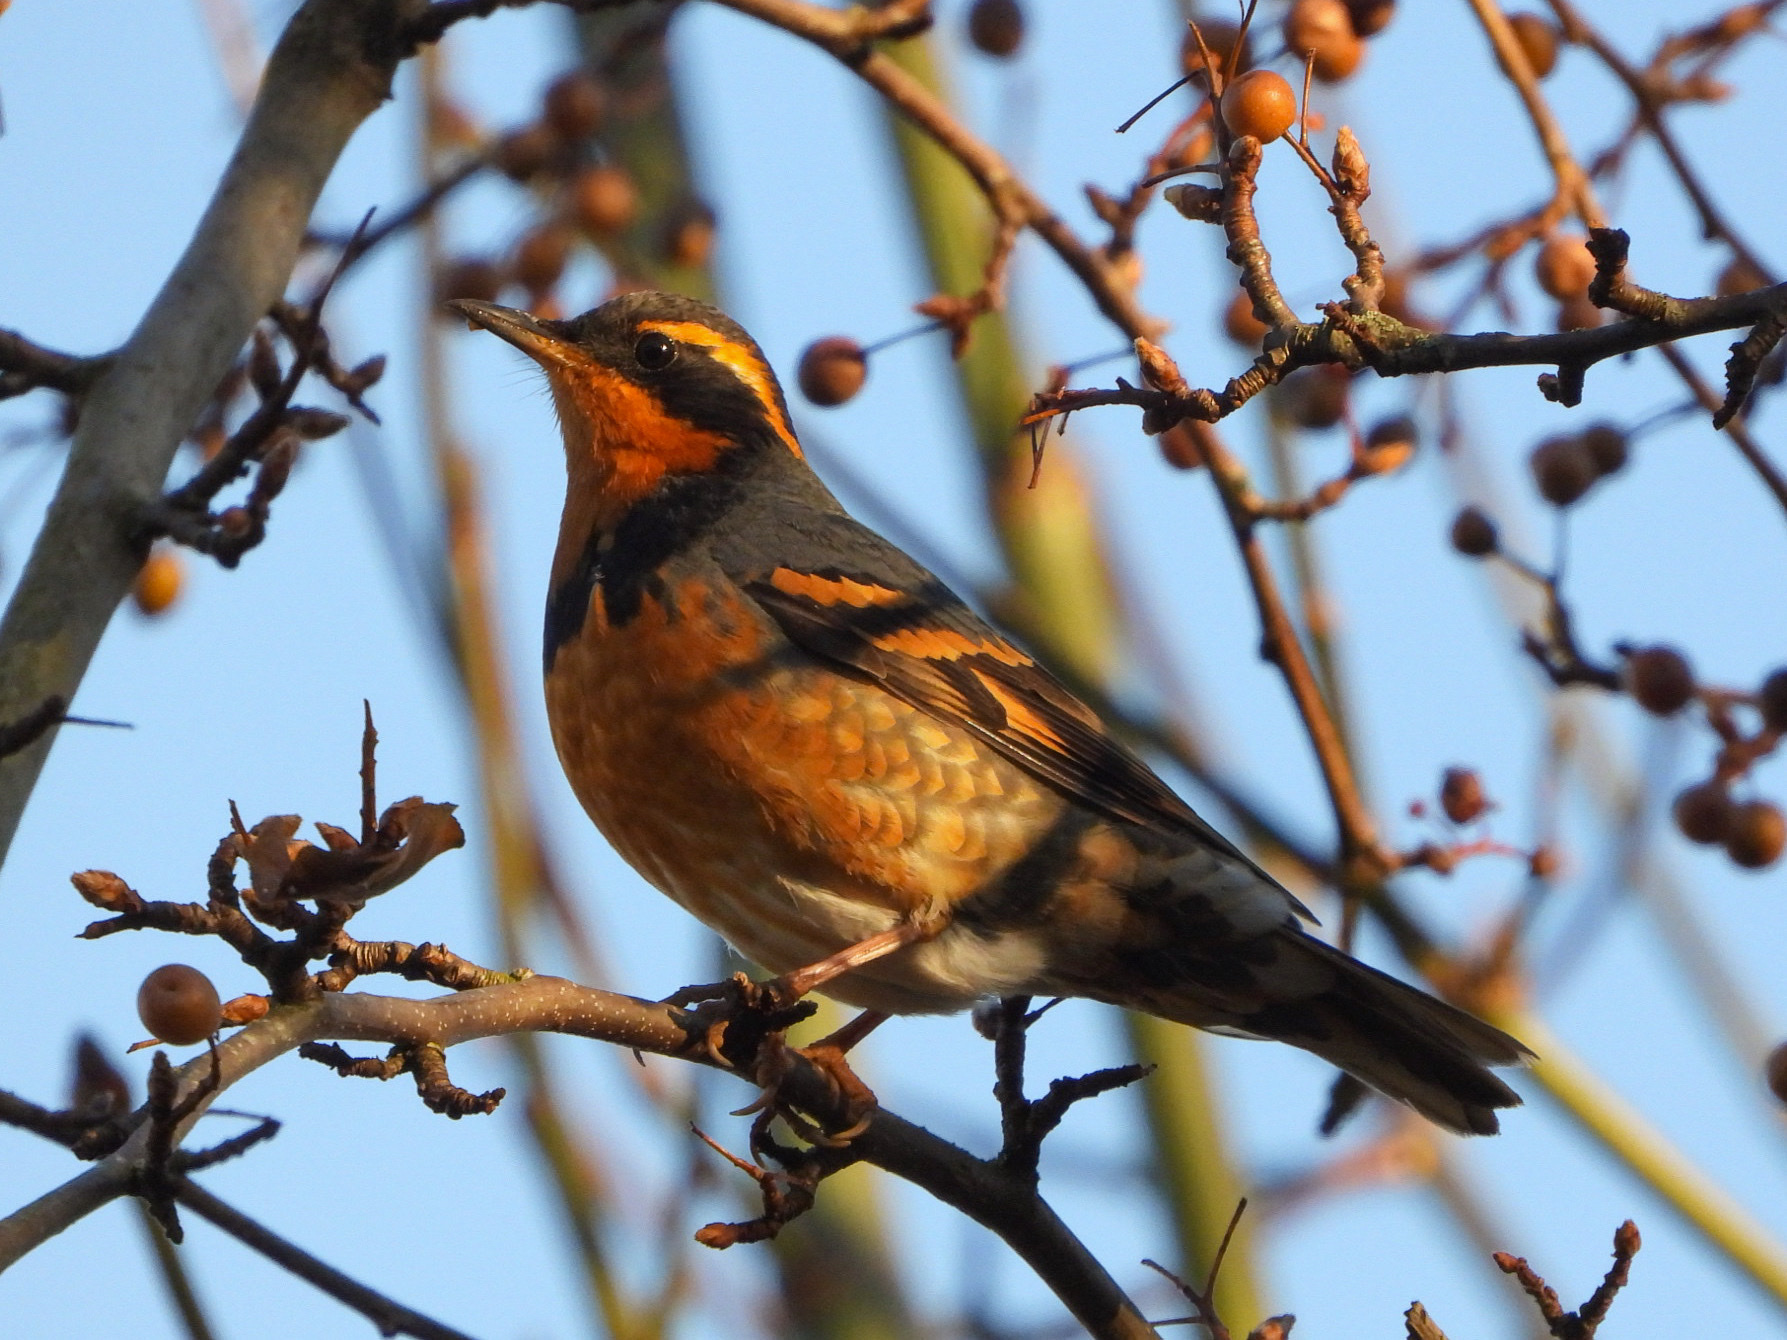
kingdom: Animalia
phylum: Chordata
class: Aves
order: Passeriformes
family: Turdidae
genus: Ixoreus
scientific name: Ixoreus naevius
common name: Varied thrush
